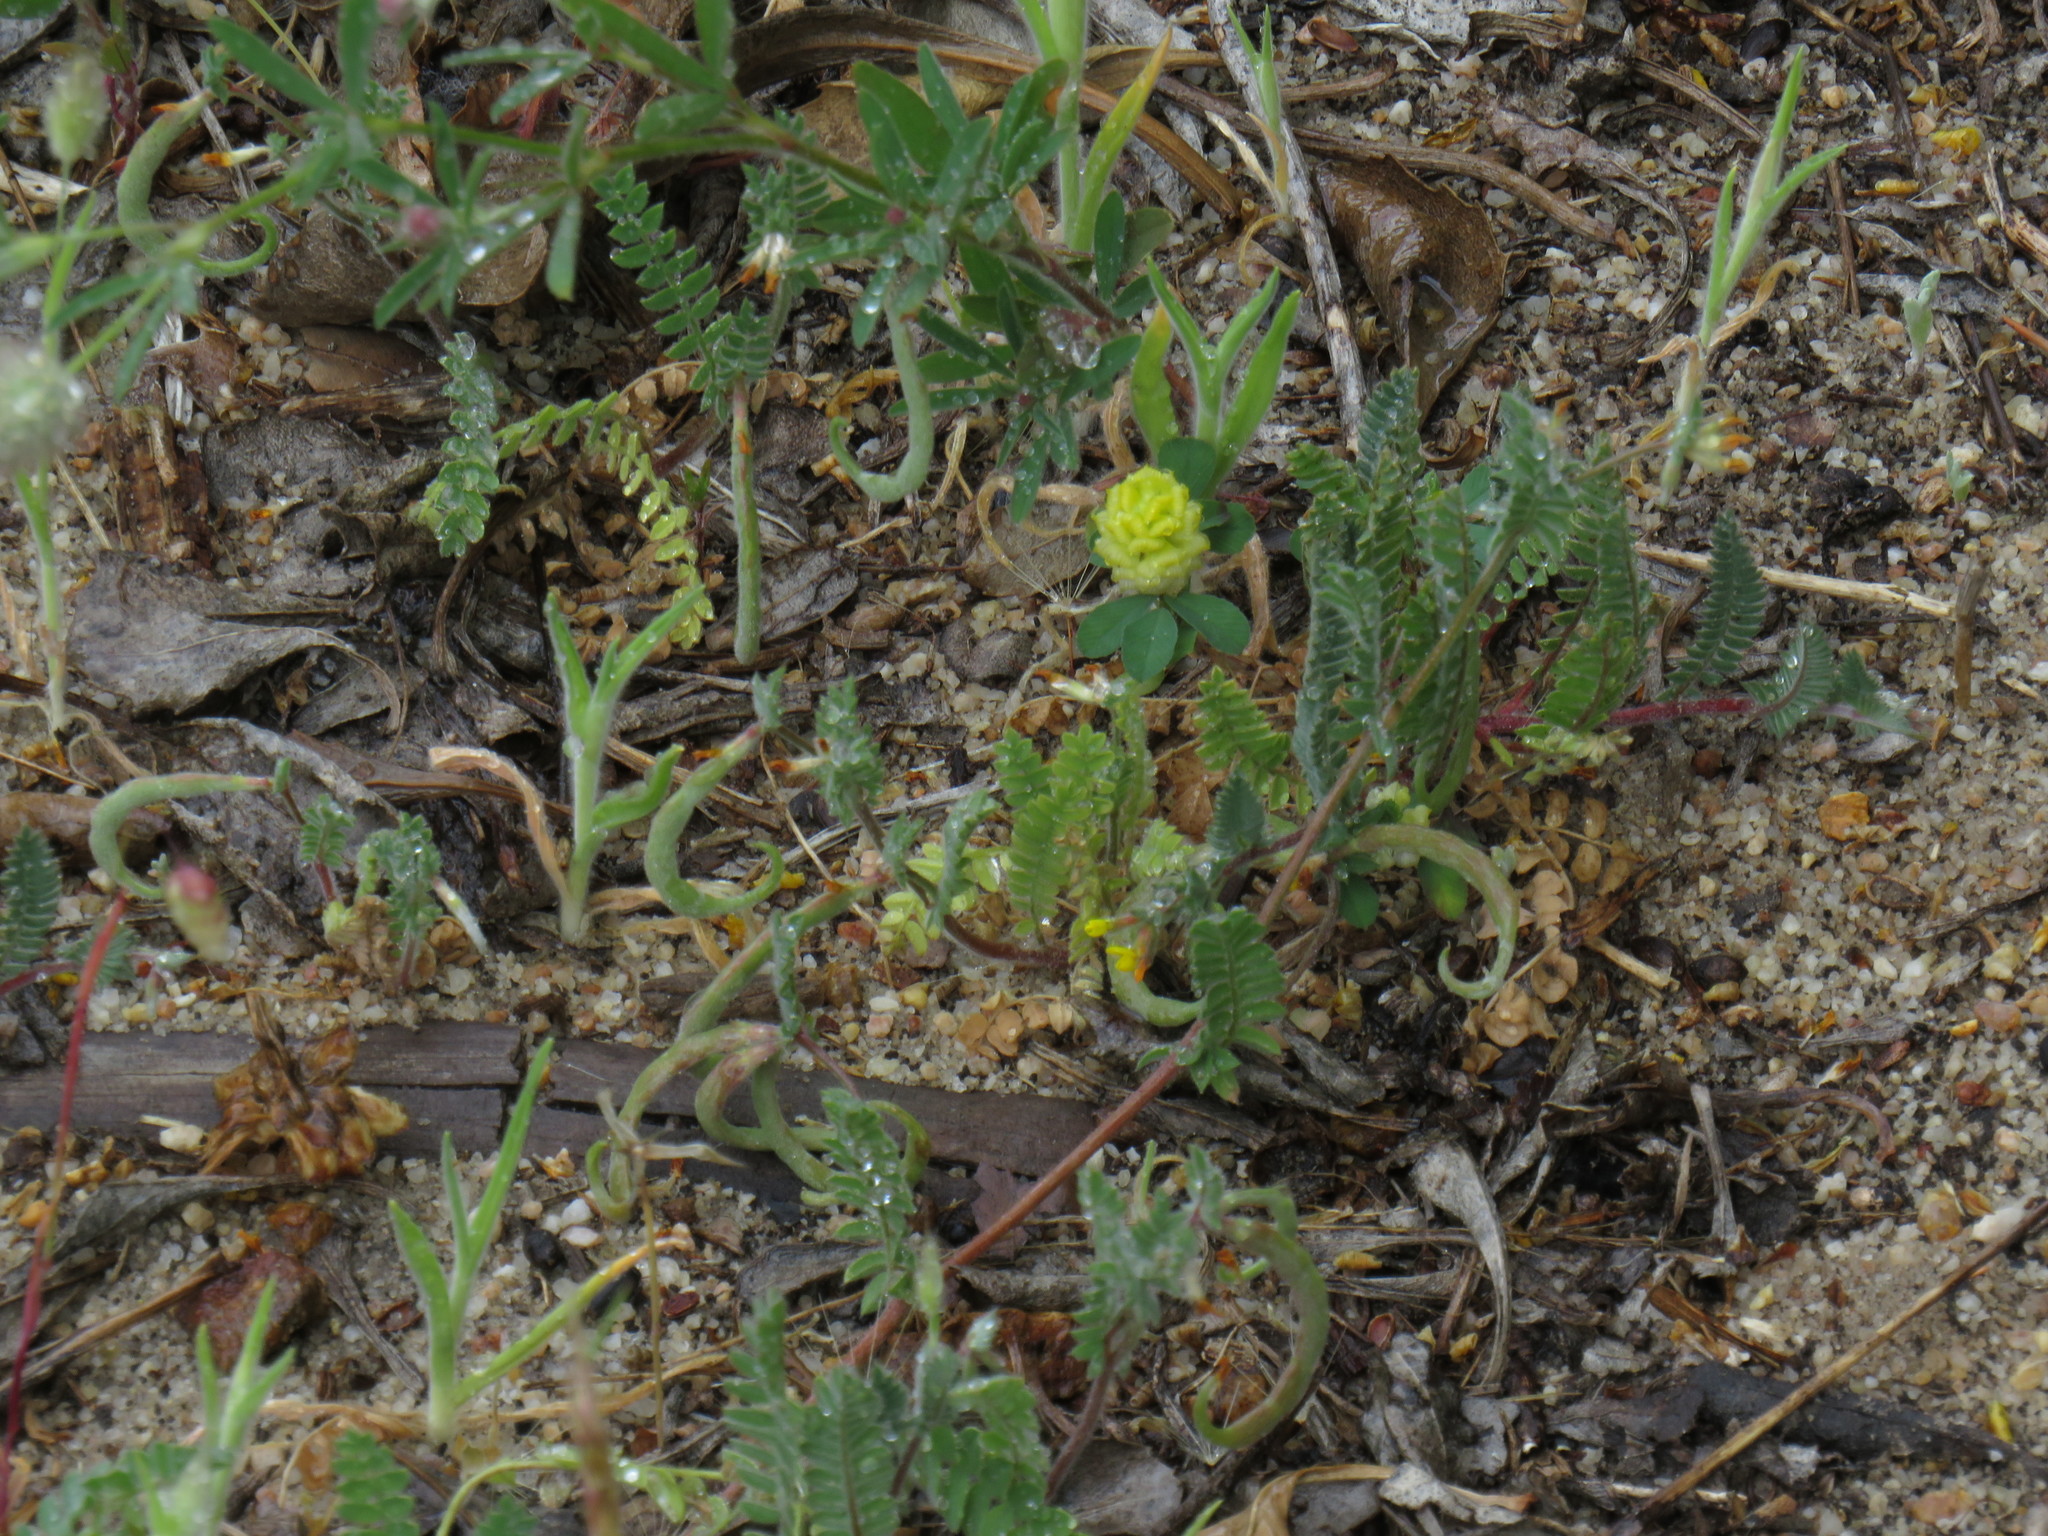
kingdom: Plantae
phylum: Tracheophyta
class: Magnoliopsida
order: Fabales
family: Fabaceae
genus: Trifolium
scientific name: Trifolium campestre
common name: Field clover
